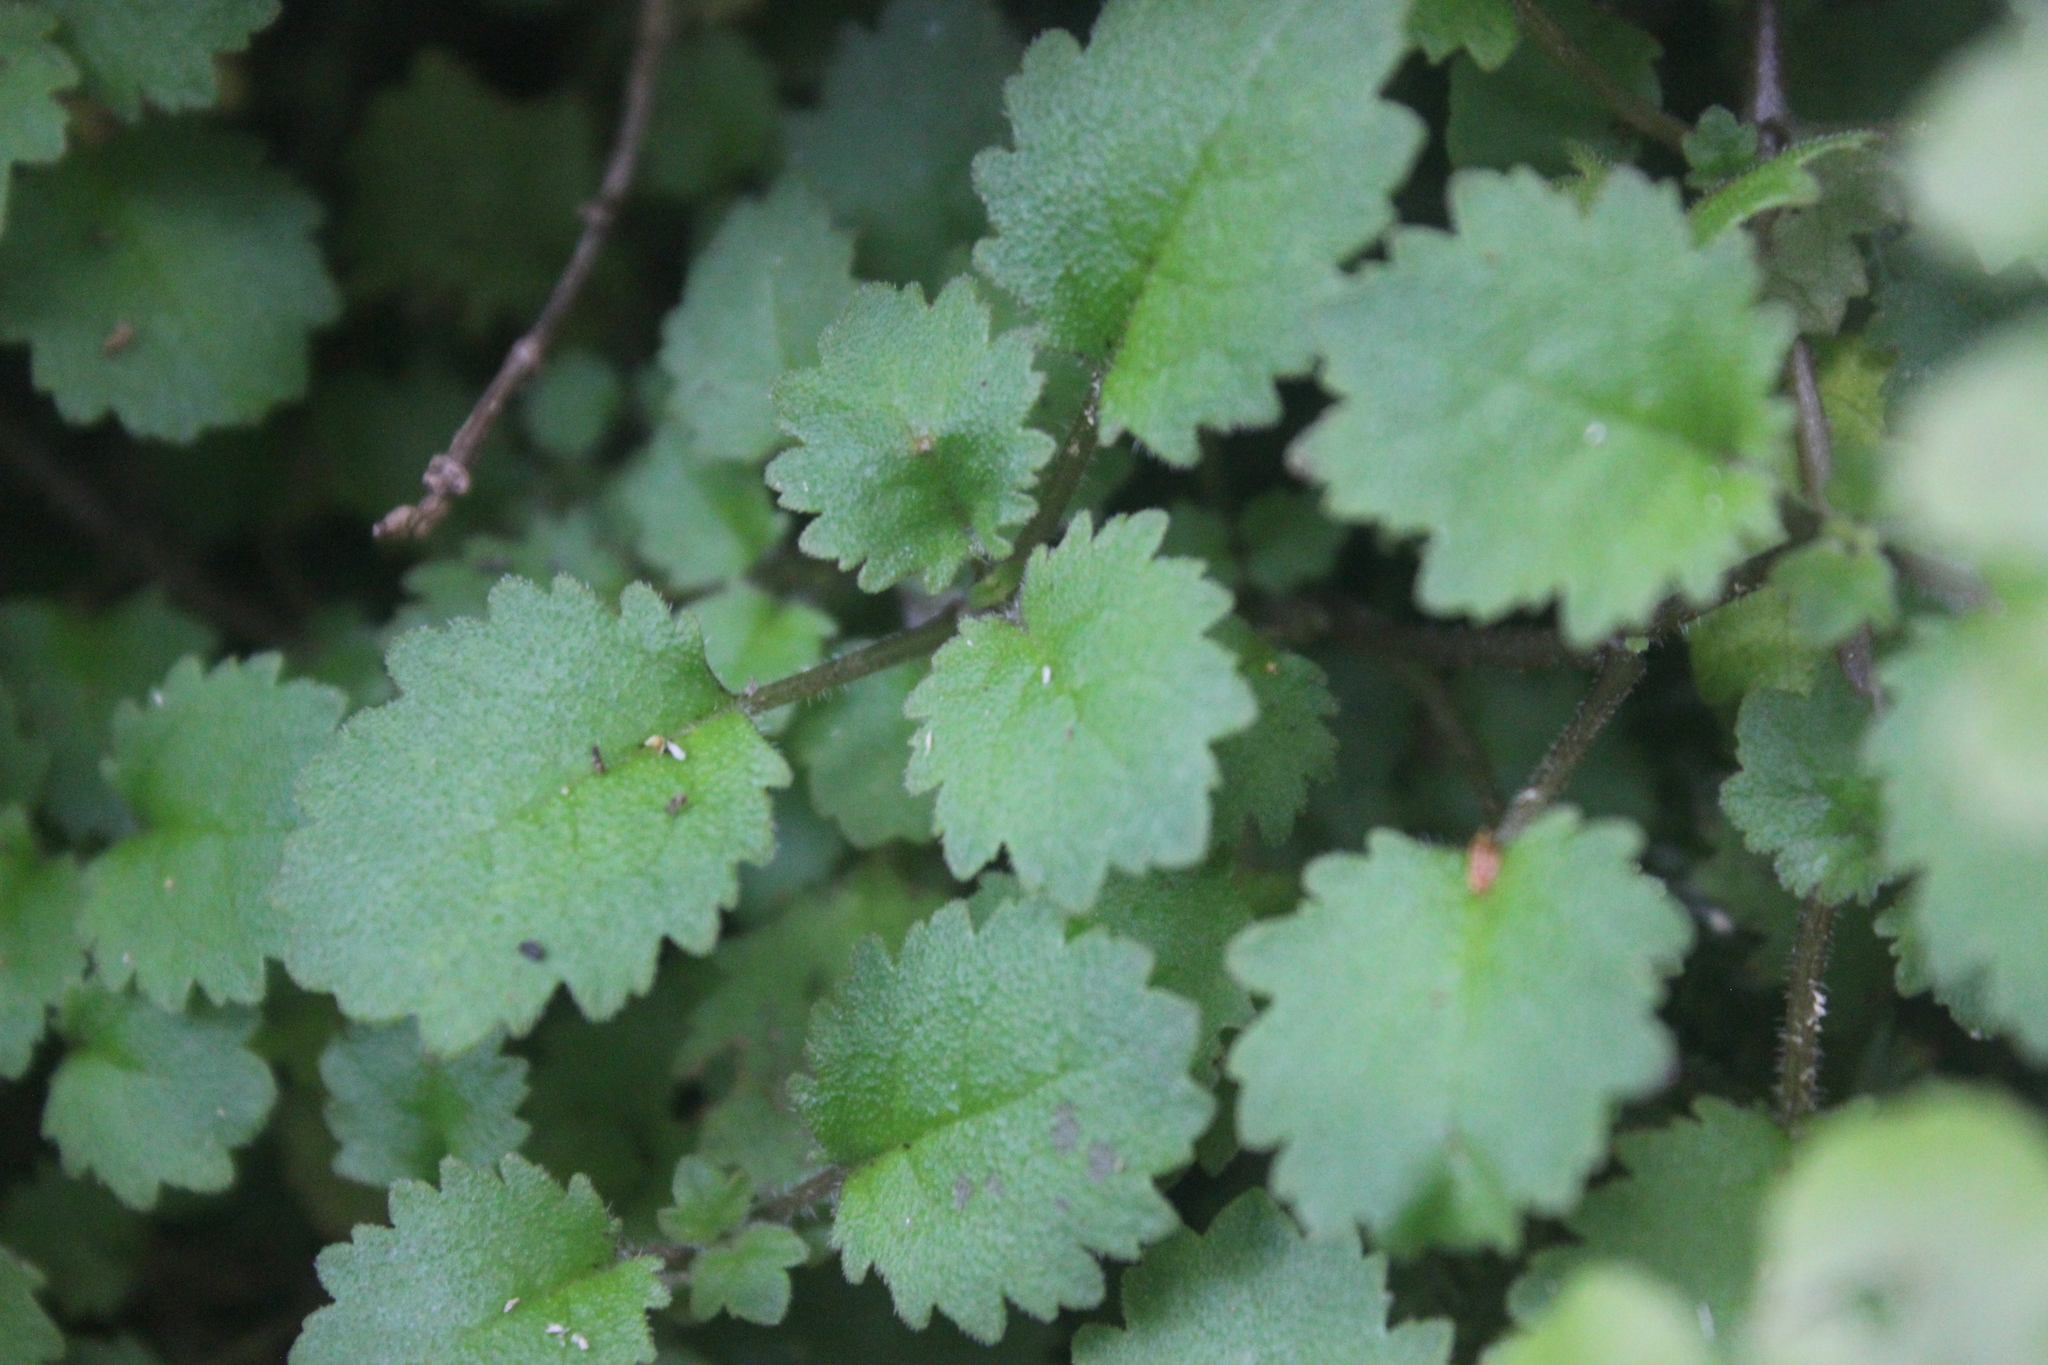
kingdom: Plantae
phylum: Tracheophyta
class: Magnoliopsida
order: Gunnerales
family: Gunneraceae
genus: Gunnera
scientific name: Gunnera monoica
